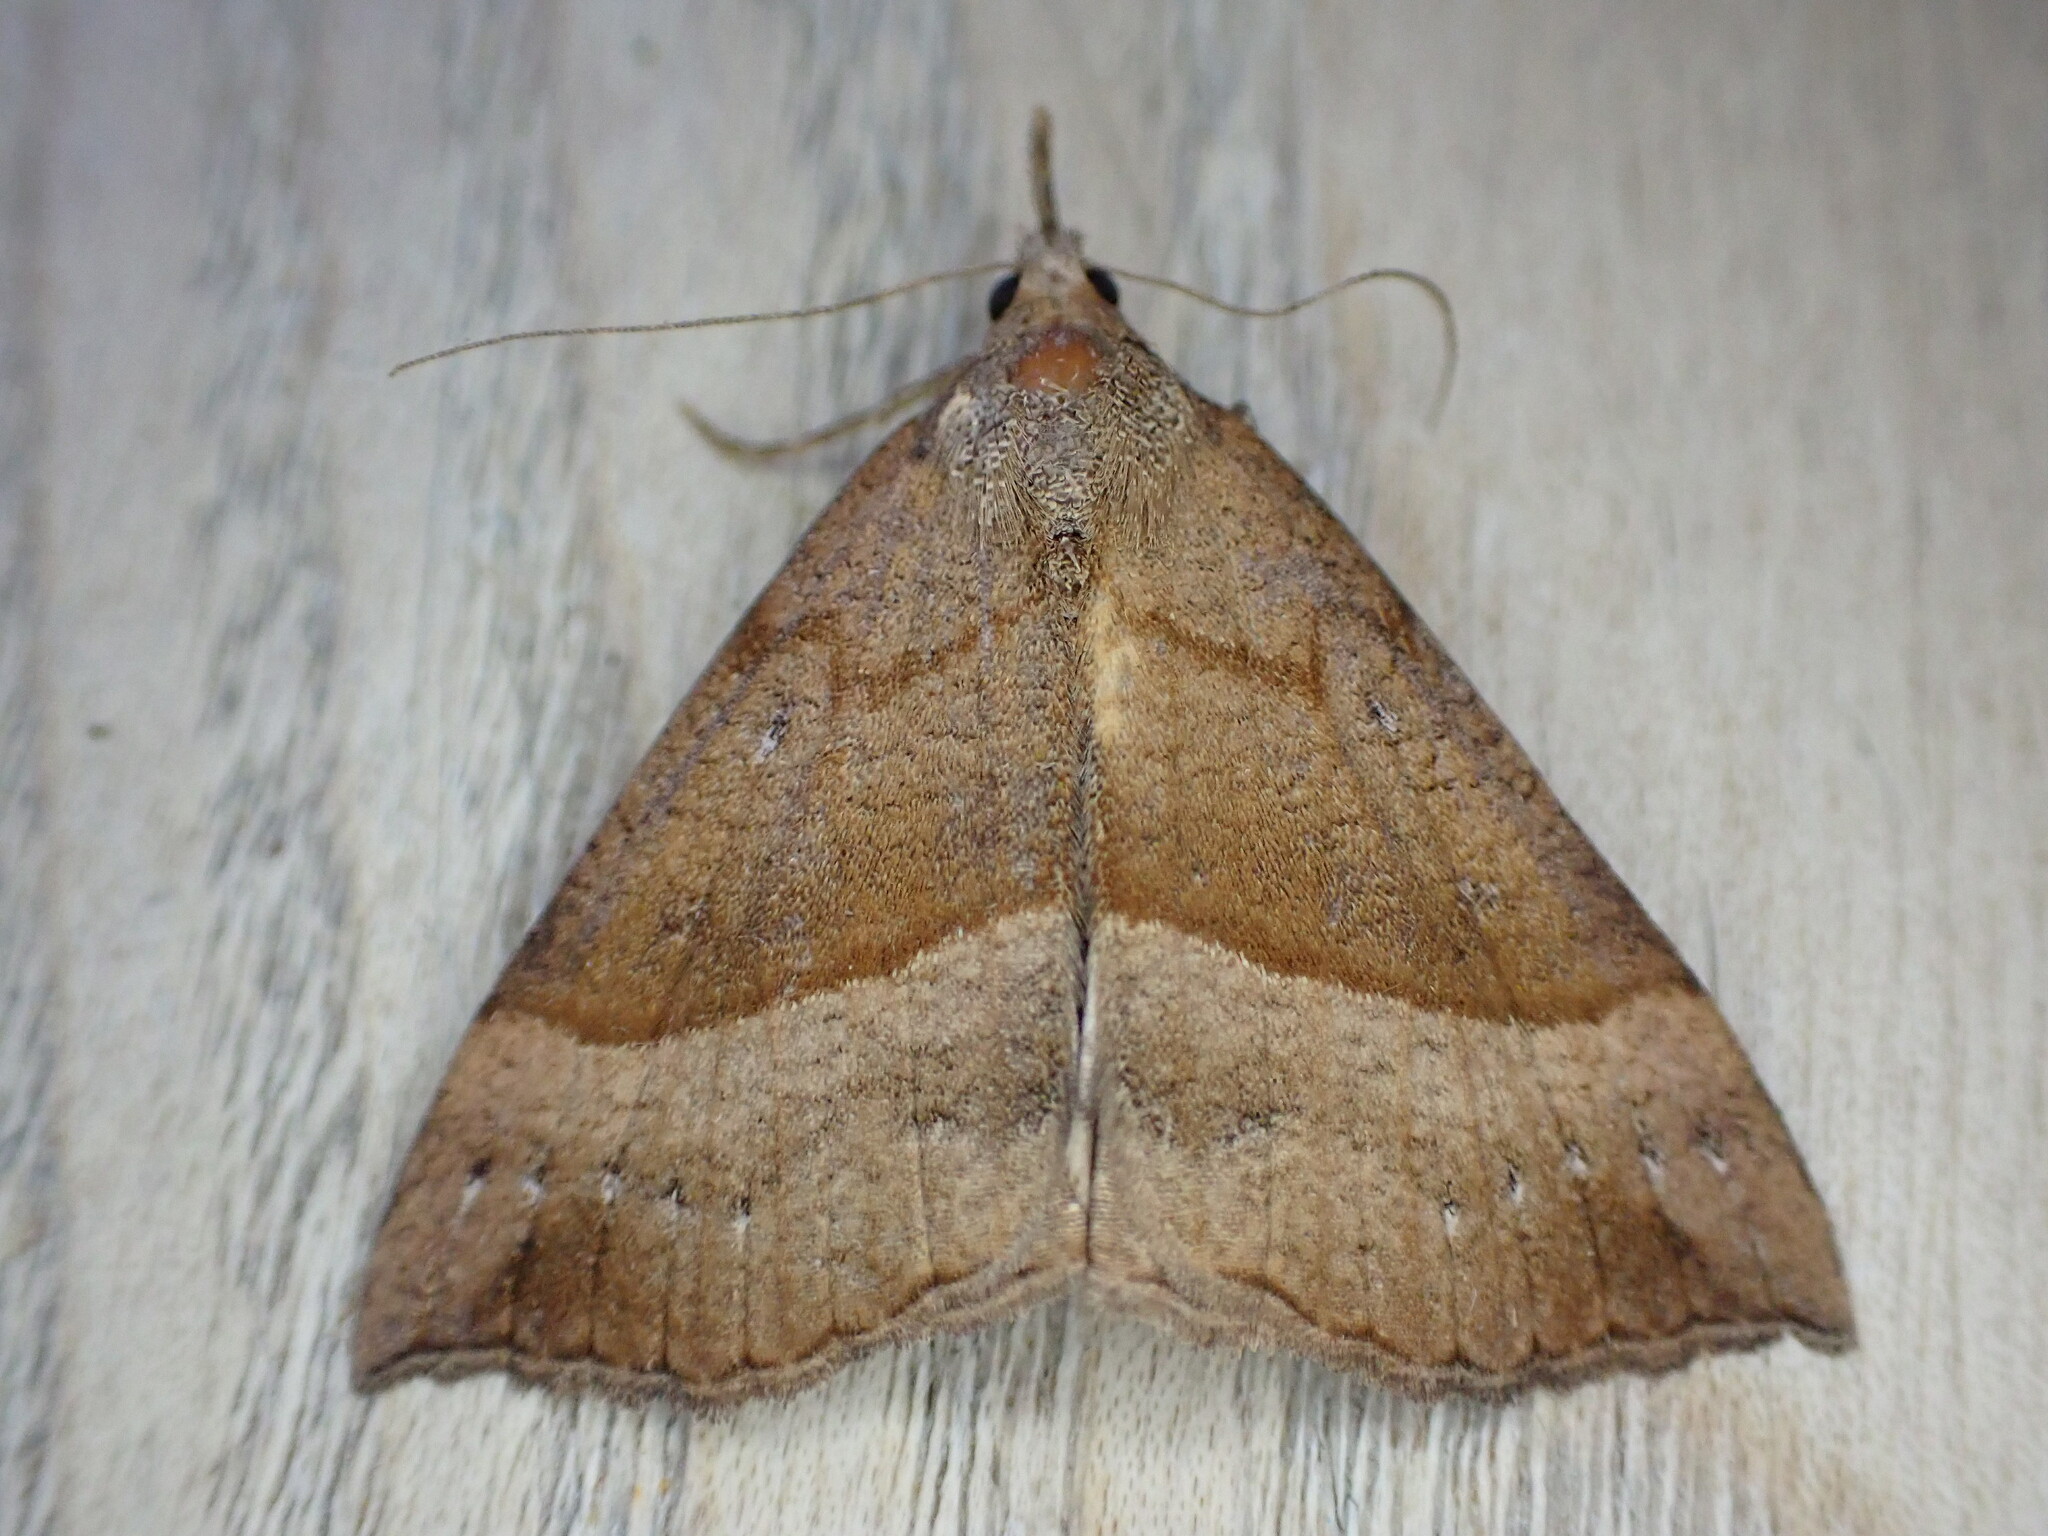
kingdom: Animalia
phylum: Arthropoda
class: Insecta
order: Lepidoptera
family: Erebidae
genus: Hypena
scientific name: Hypena proboscidalis
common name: Snout
